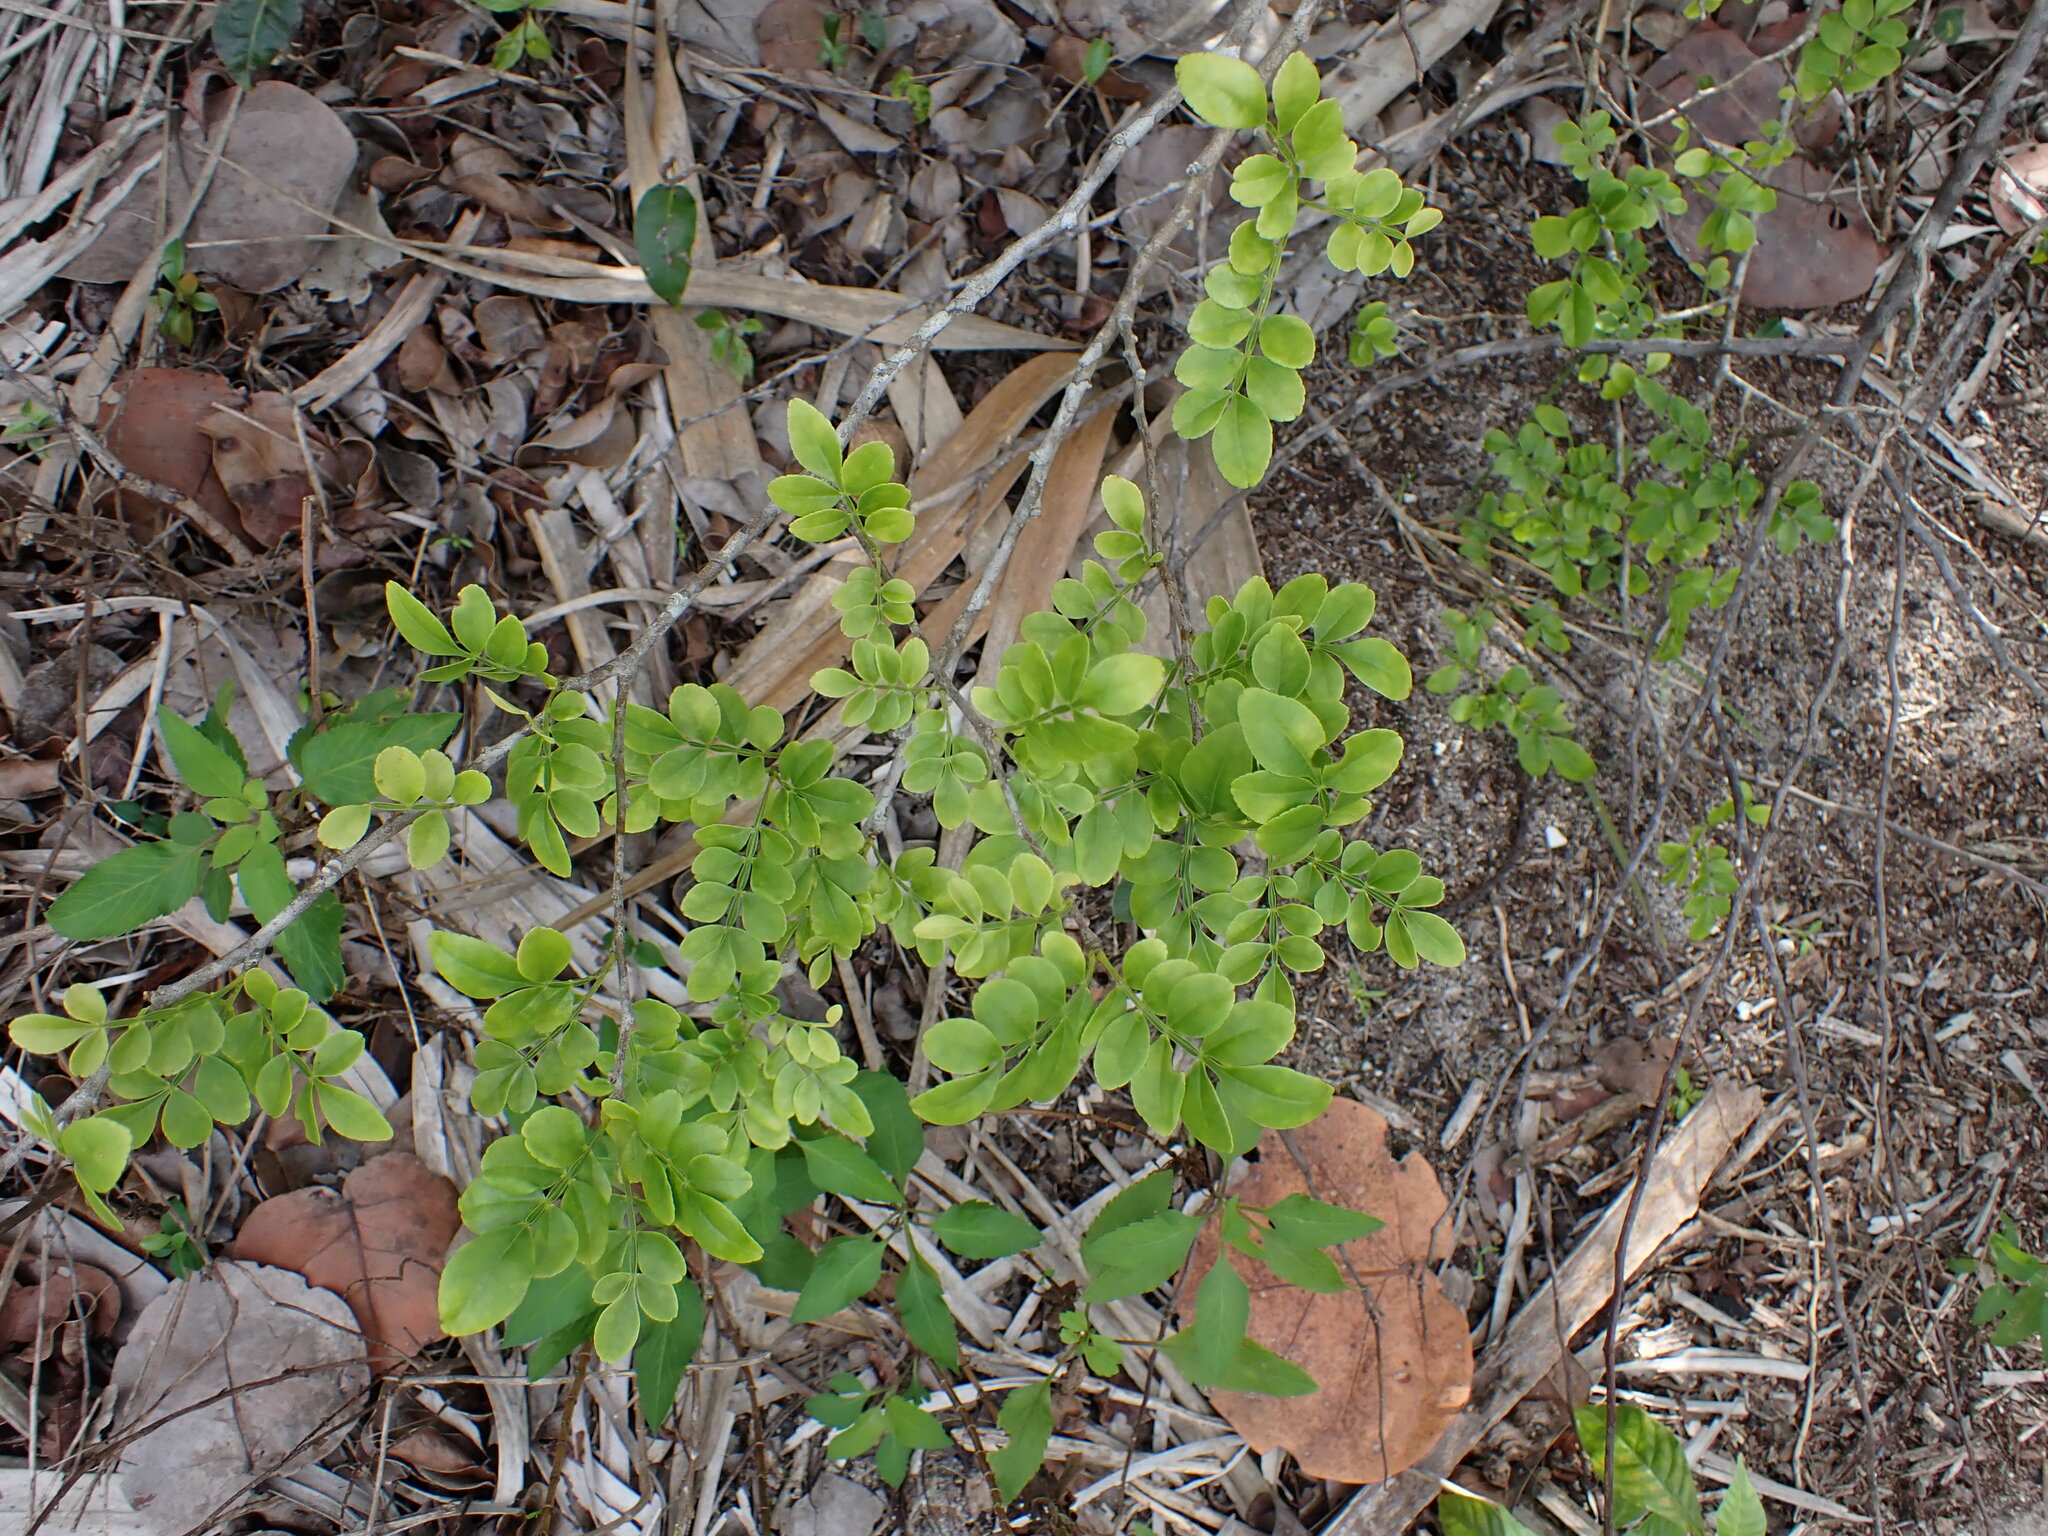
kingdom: Plantae
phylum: Tracheophyta
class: Magnoliopsida
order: Sapindales
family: Rutaceae
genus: Zanthoxylum
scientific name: Zanthoxylum fagara
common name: Lime prickly-ash
